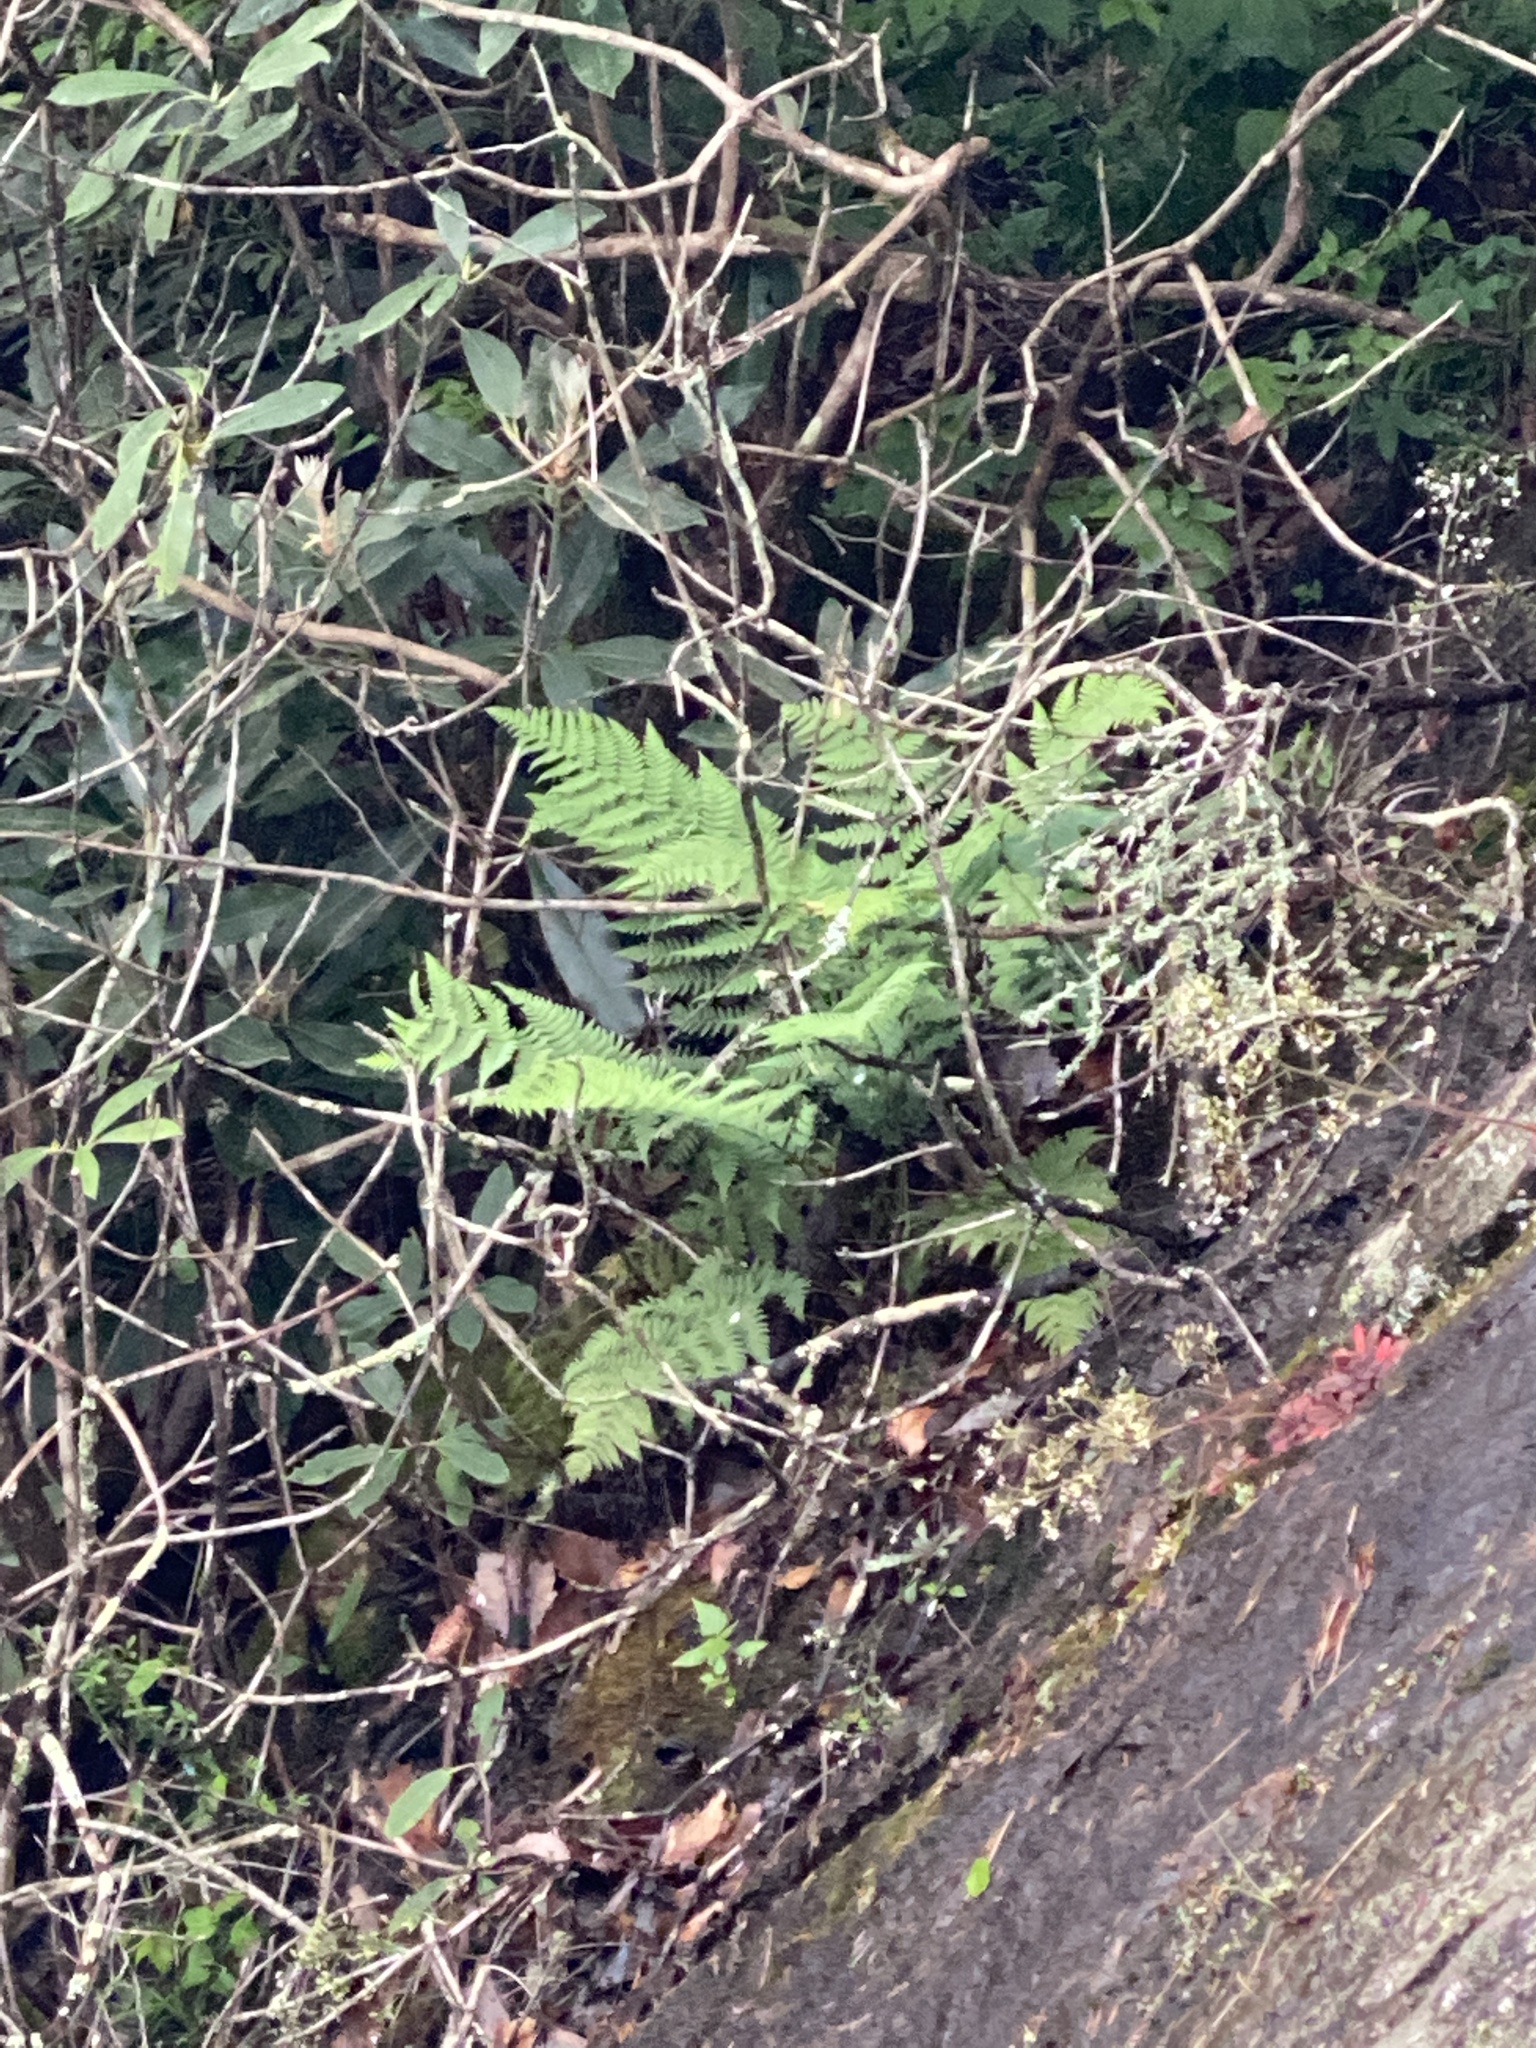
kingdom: Plantae
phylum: Tracheophyta
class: Polypodiopsida
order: Polypodiales
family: Dryopteridaceae
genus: Dryopteris
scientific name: Dryopteris marginalis
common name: Marginal wood fern
